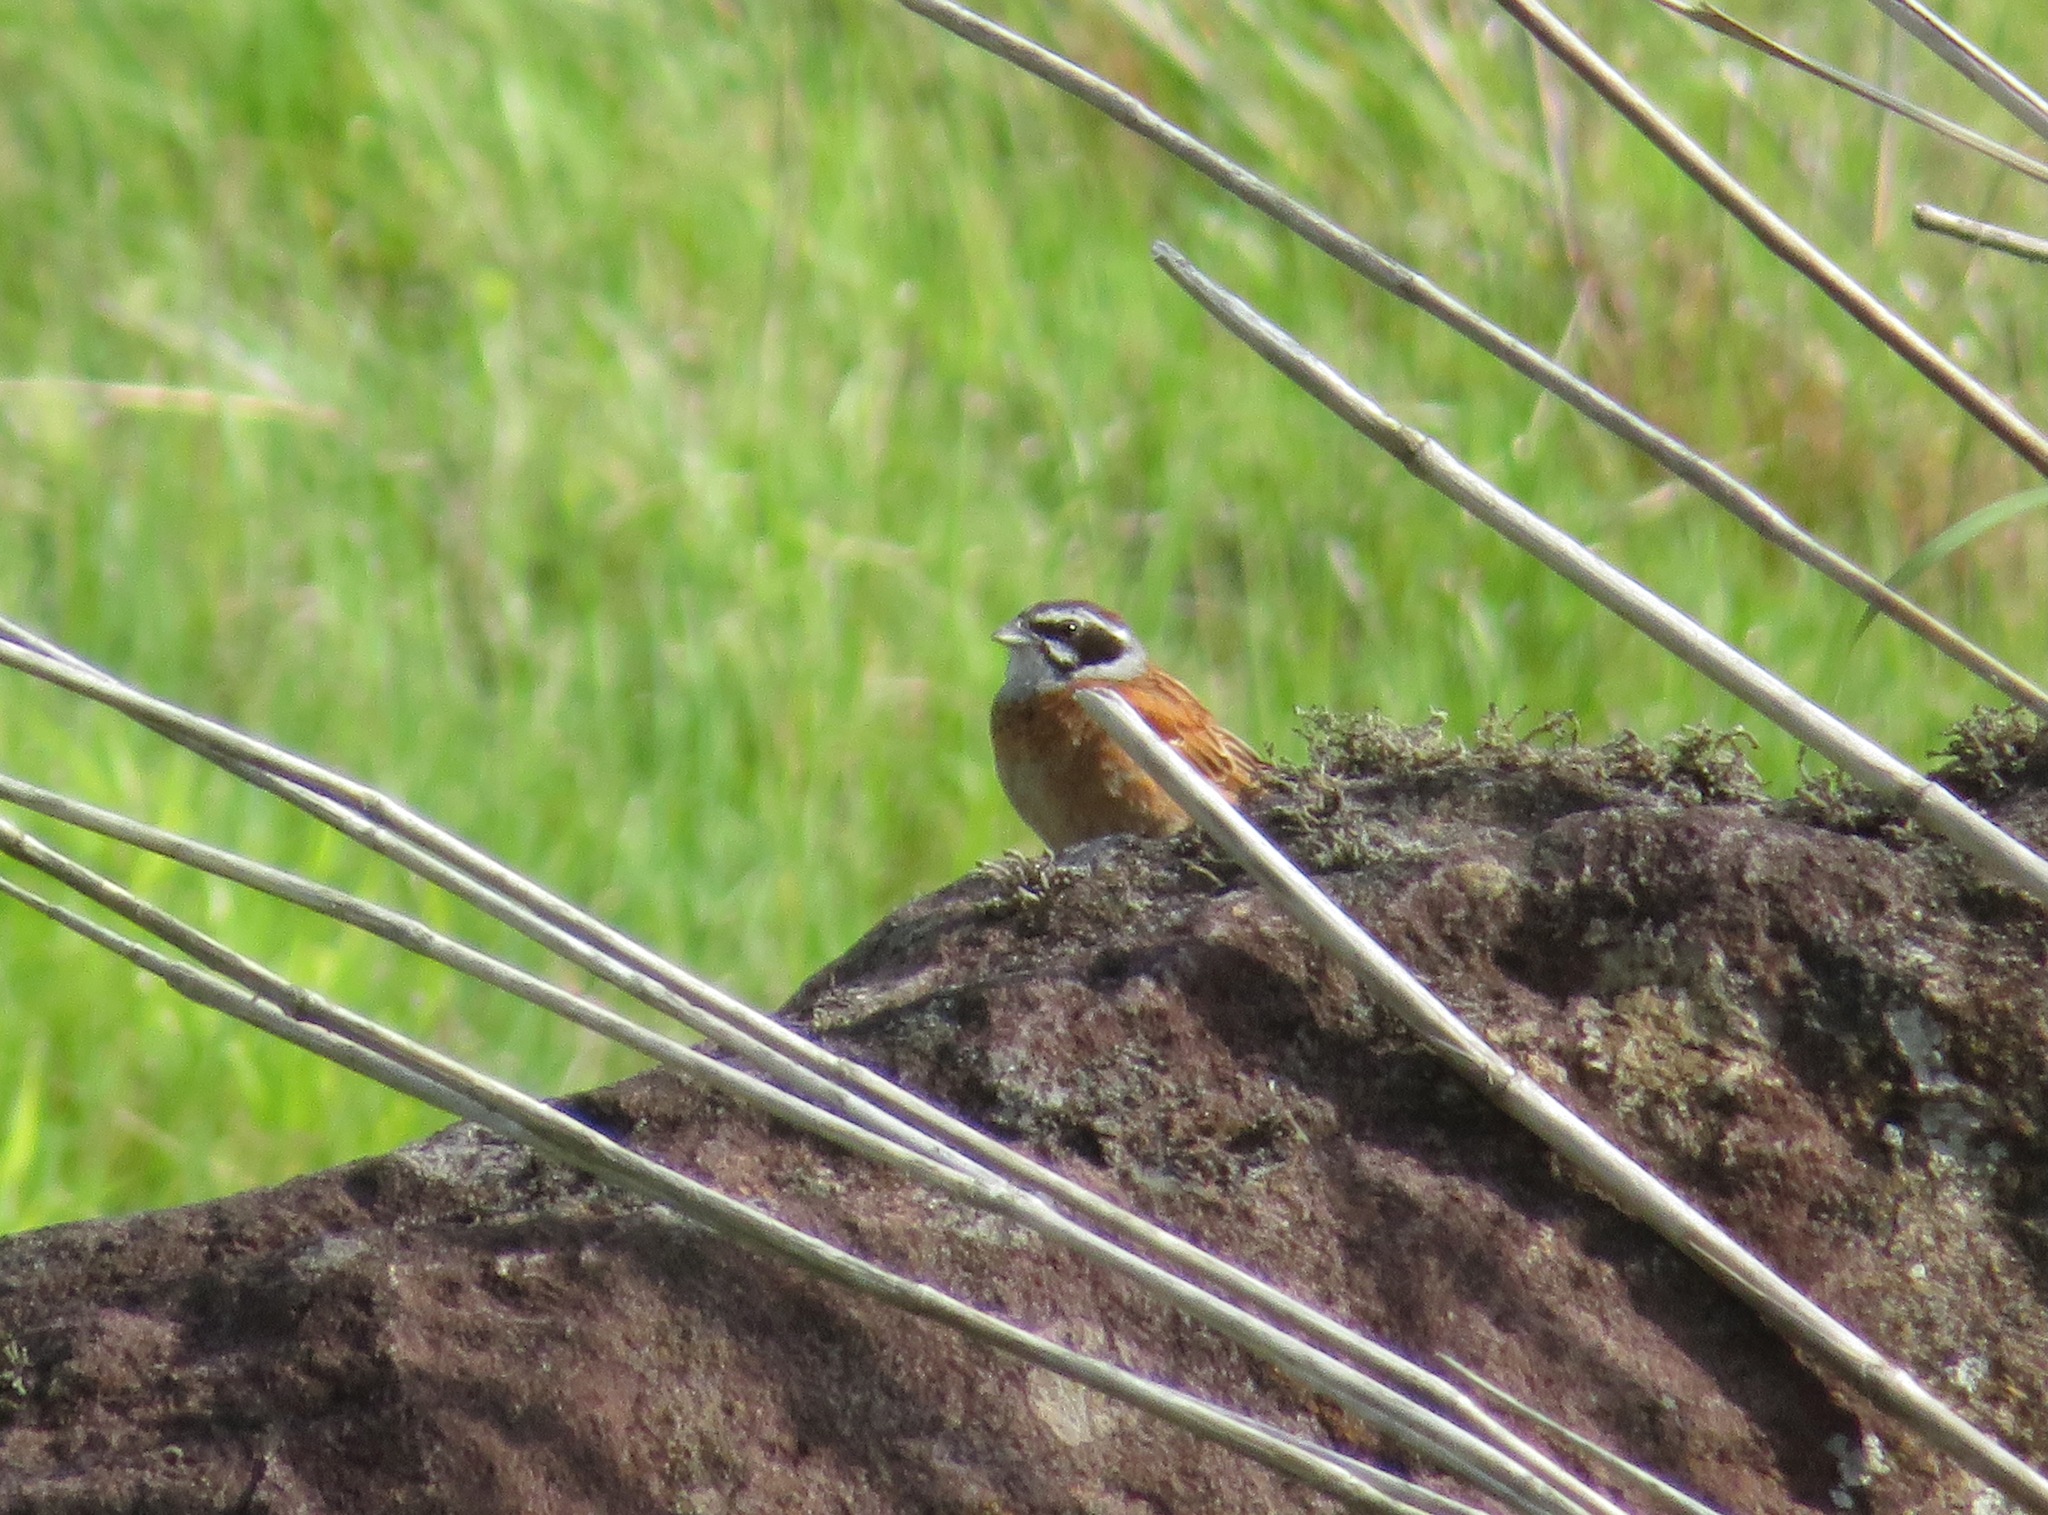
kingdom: Animalia
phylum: Chordata
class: Aves
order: Passeriformes
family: Emberizidae
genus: Emberiza
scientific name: Emberiza cioides
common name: Meadow bunting
